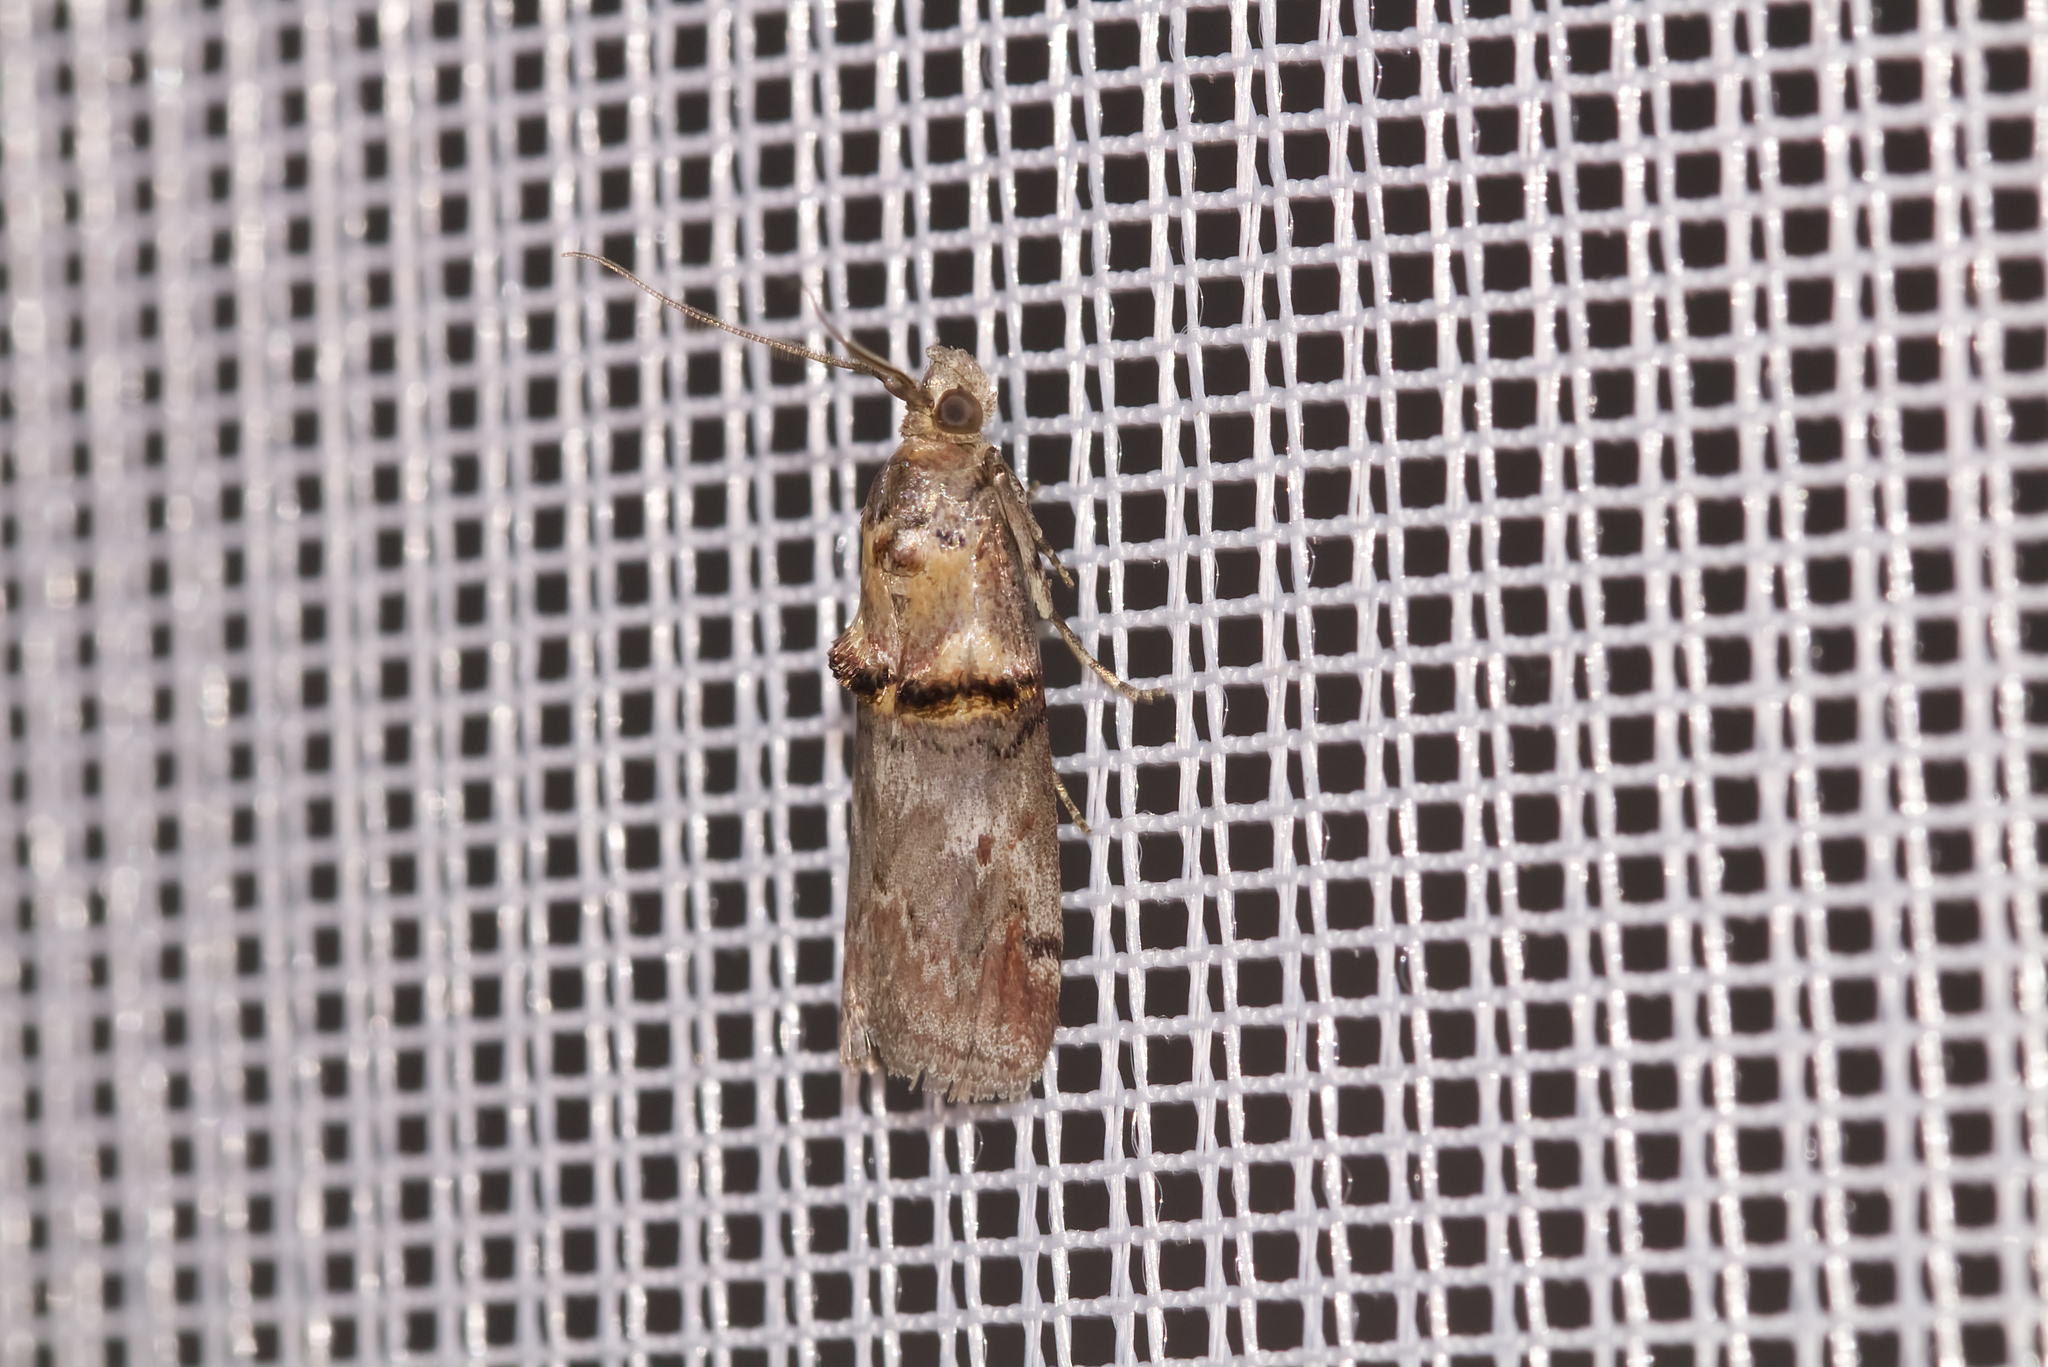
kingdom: Animalia
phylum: Arthropoda
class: Insecta
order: Lepidoptera
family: Pyralidae
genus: Trachonitis
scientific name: Trachonitis cristella
